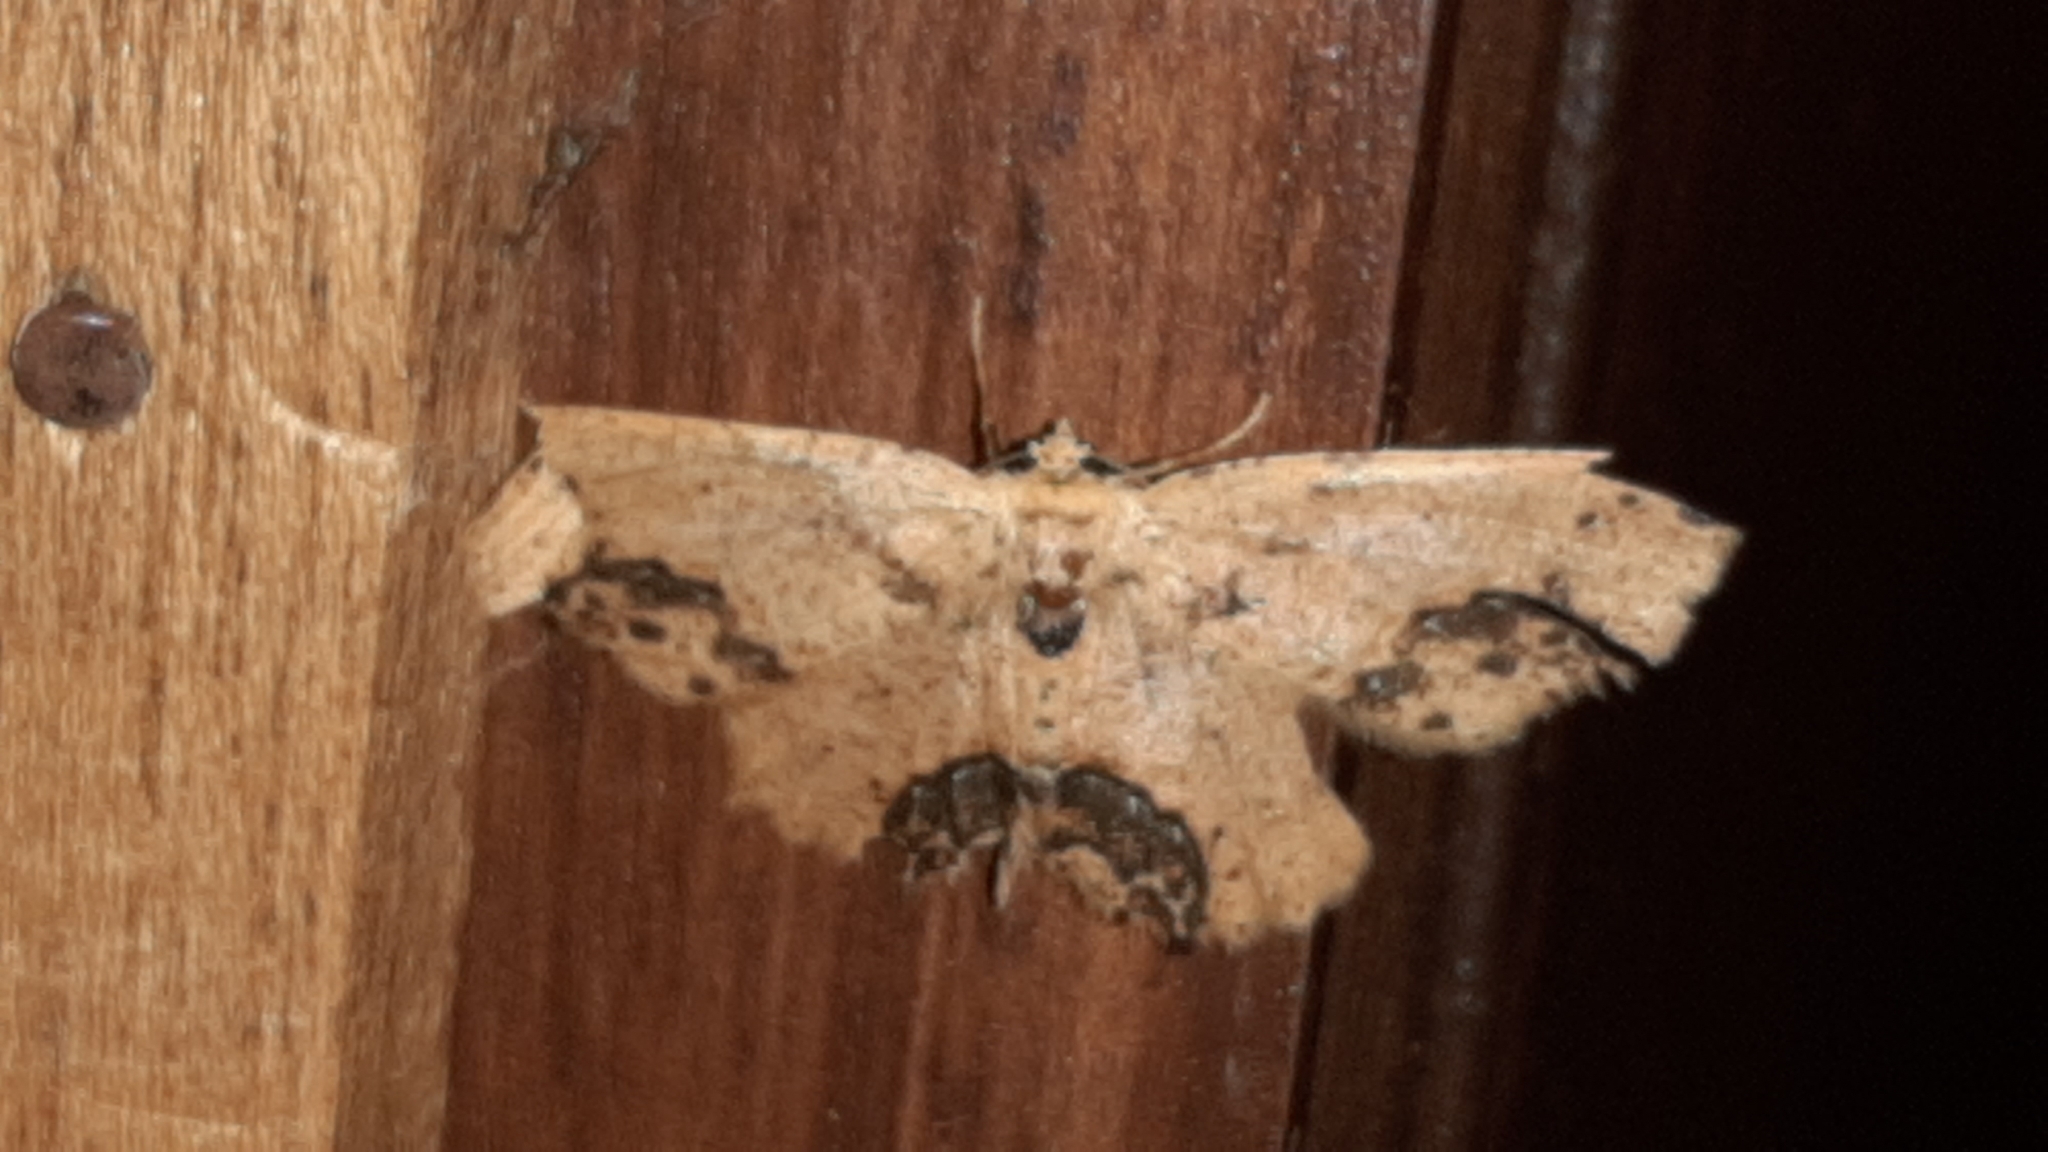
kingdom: Animalia
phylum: Arthropoda
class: Insecta
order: Lepidoptera
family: Geometridae
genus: Isochromodes
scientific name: Isochromodes granula
